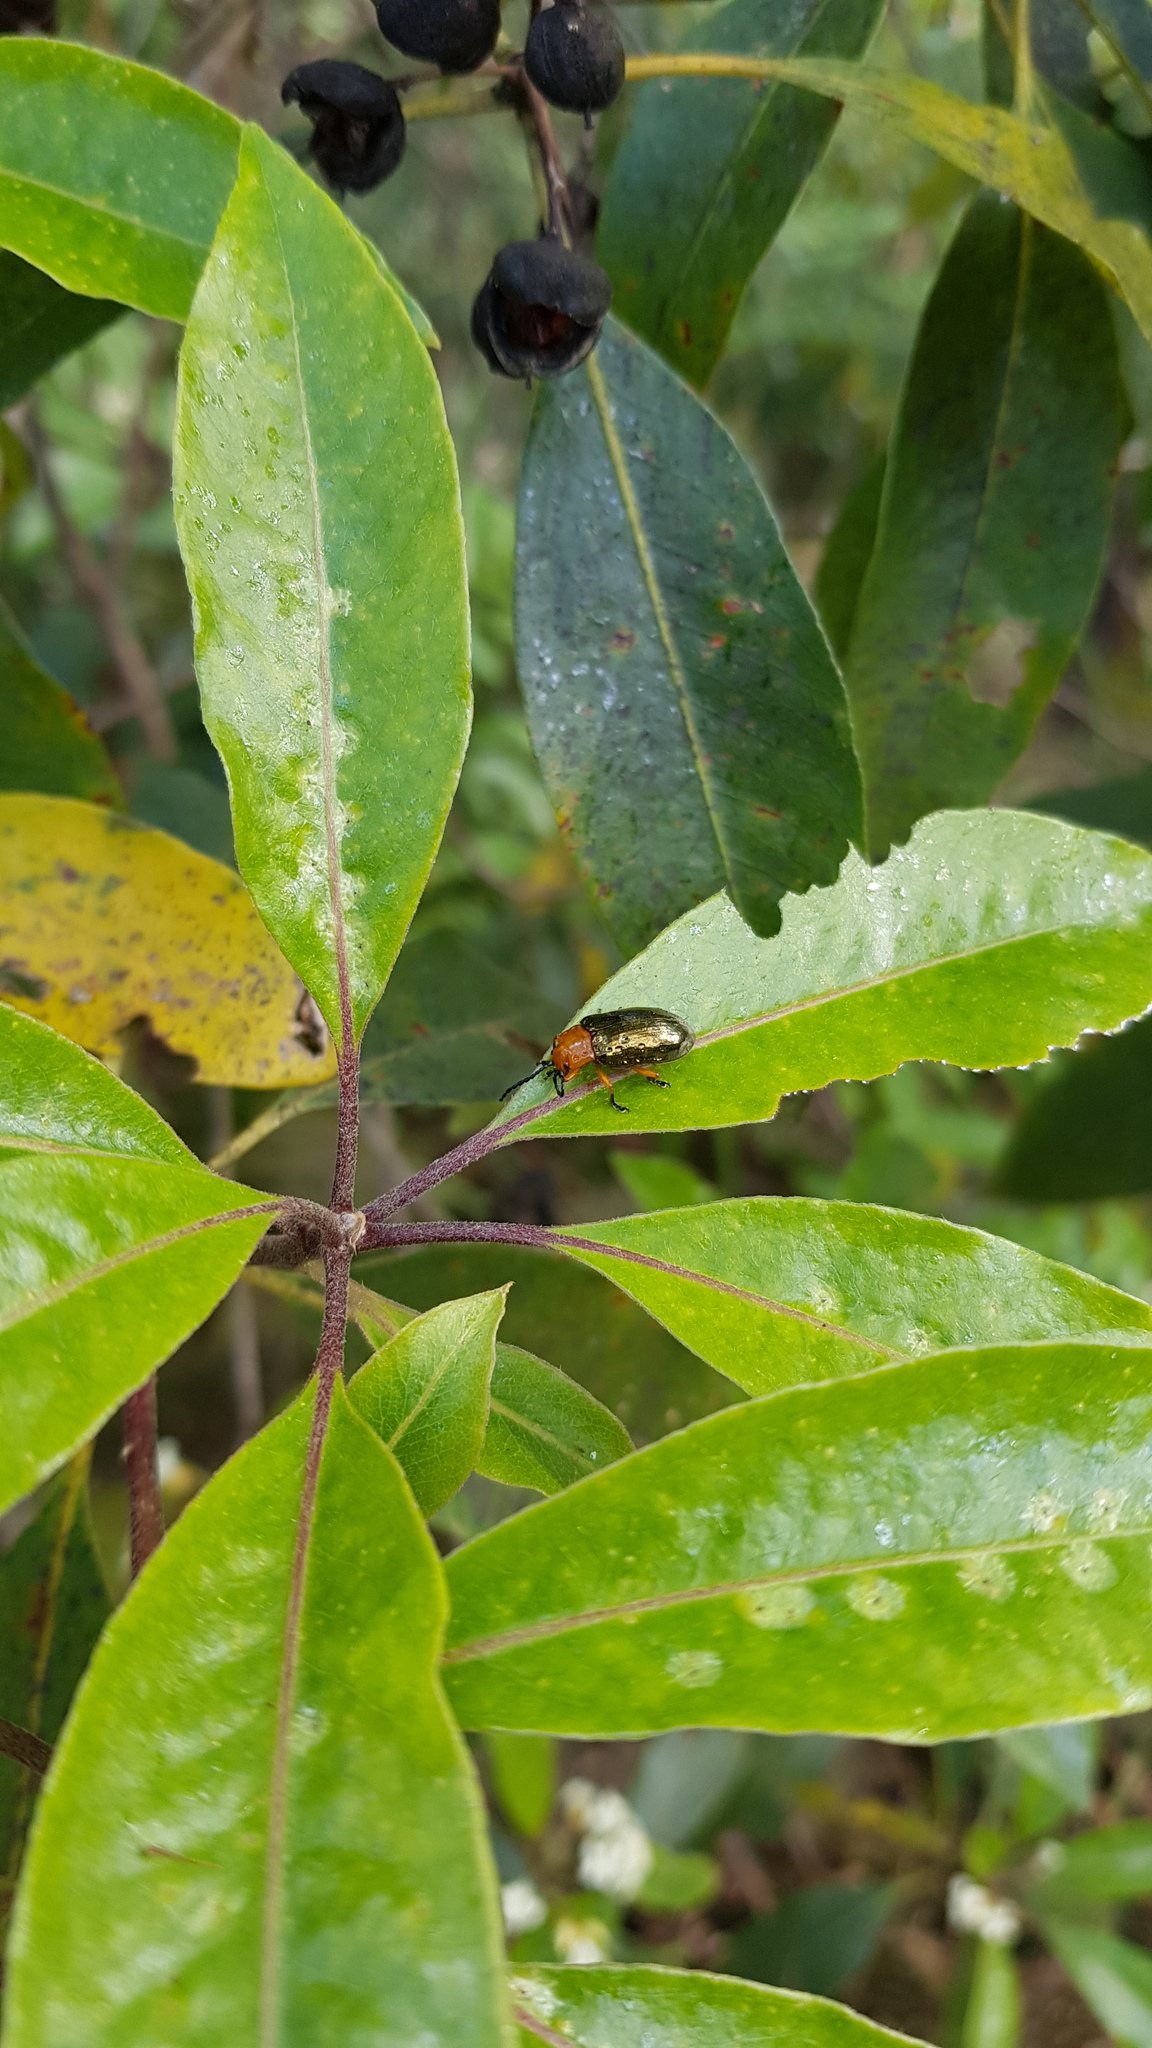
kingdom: Animalia
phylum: Arthropoda
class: Insecta
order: Coleoptera
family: Chrysomelidae
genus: Lamprolina
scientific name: Lamprolina
